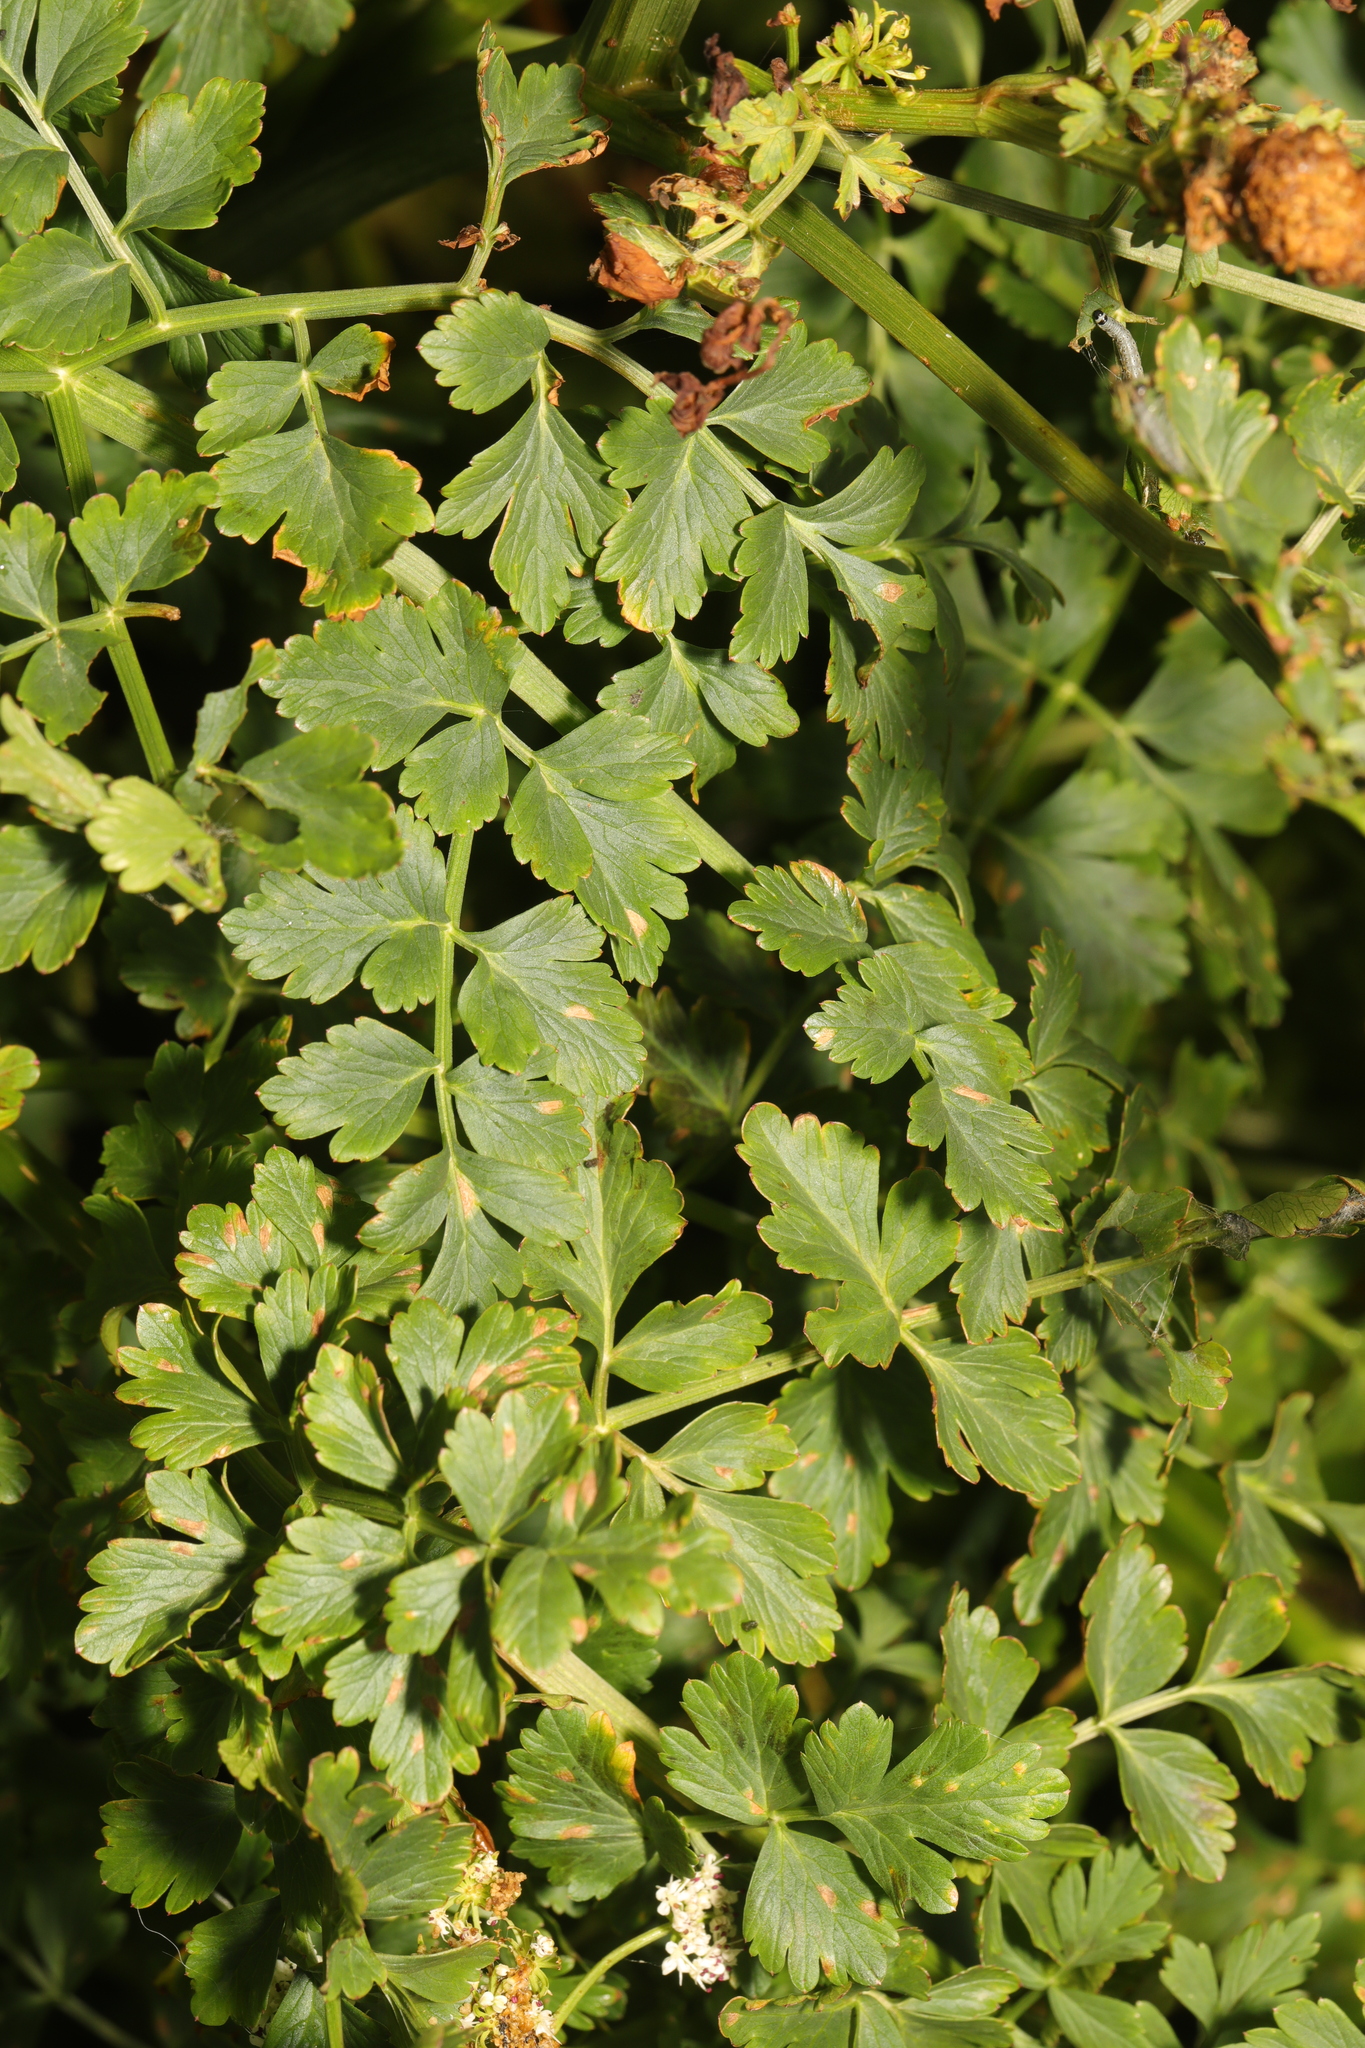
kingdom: Plantae
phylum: Tracheophyta
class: Magnoliopsida
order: Apiales
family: Apiaceae
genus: Oenanthe
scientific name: Oenanthe crocata
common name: Hemlock water-dropwort
